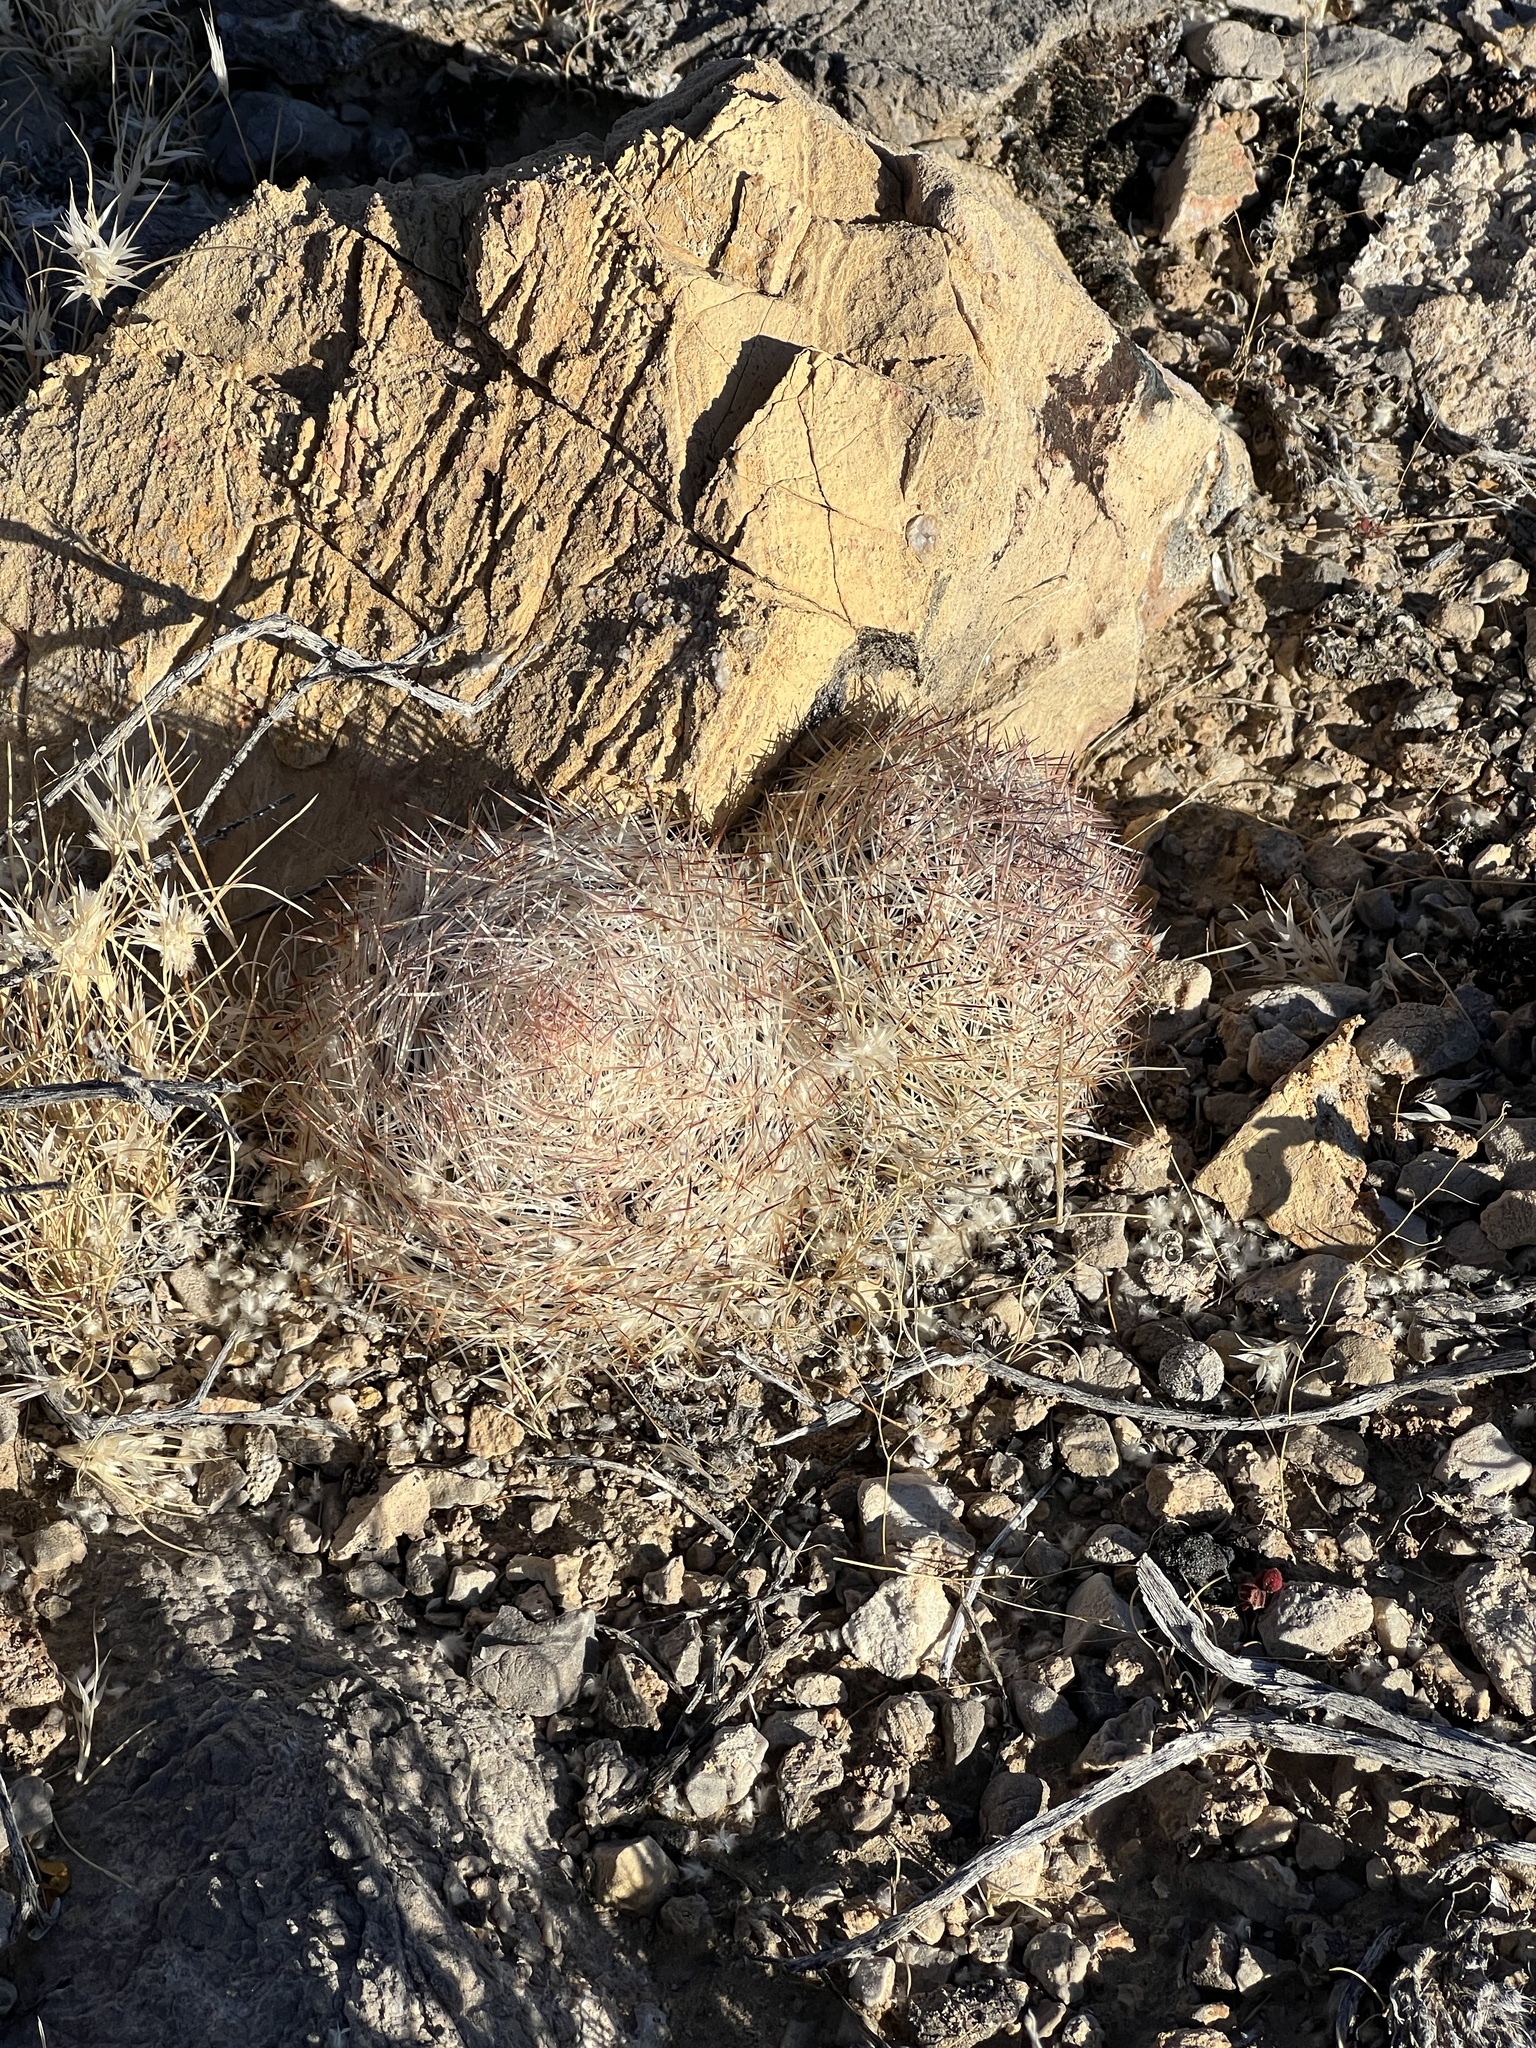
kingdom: Plantae
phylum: Tracheophyta
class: Magnoliopsida
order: Caryophyllales
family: Cactaceae
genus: Pelecyphora
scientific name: Pelecyphora dasyacantha
